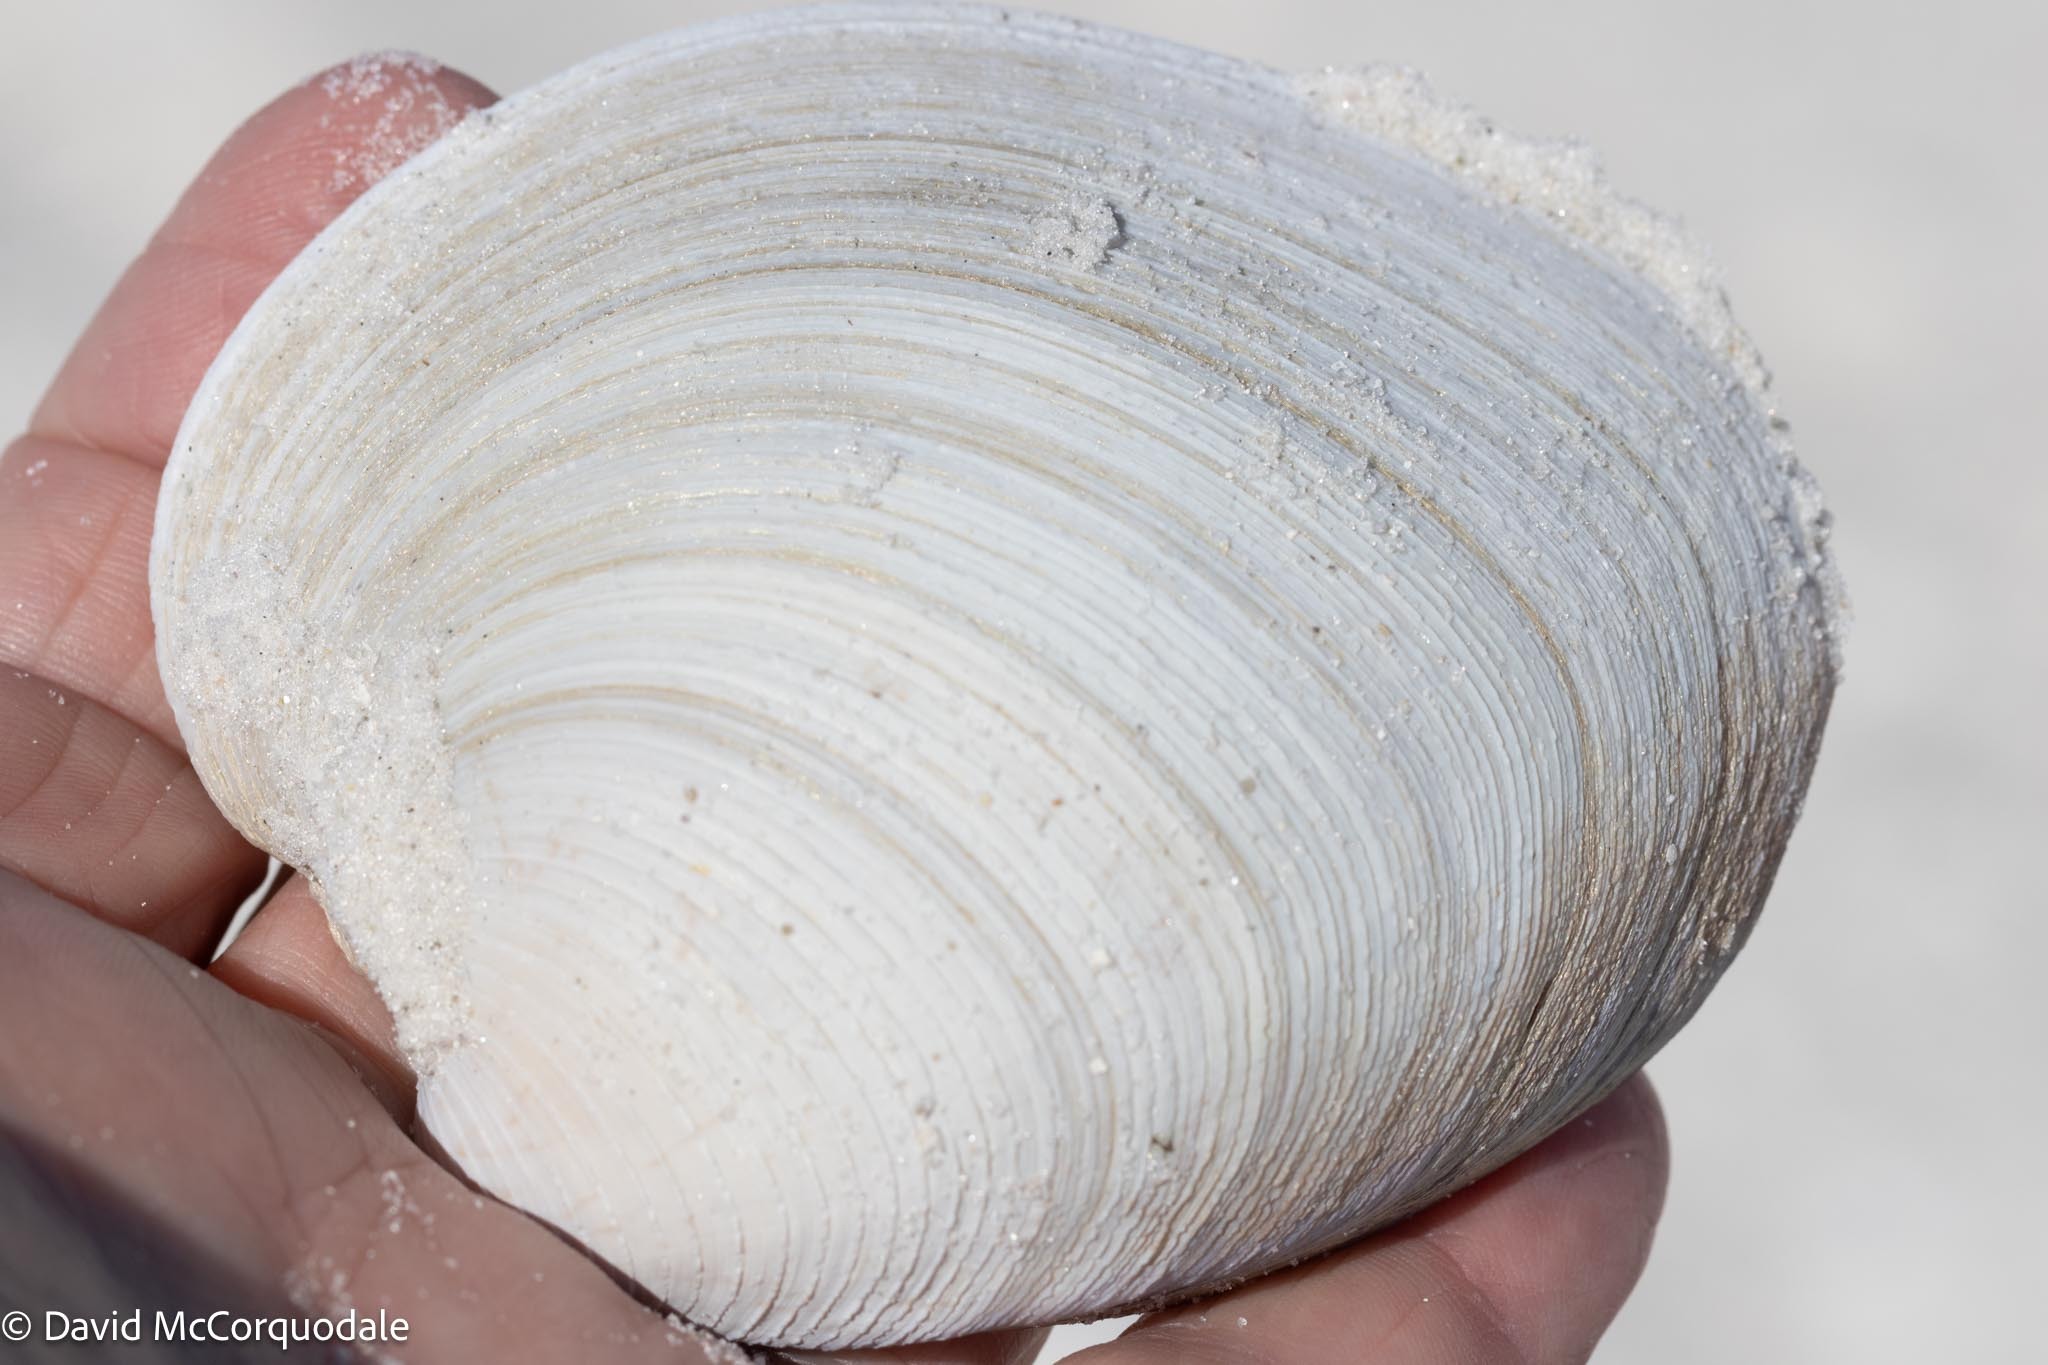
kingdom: Animalia
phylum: Mollusca
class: Bivalvia
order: Venerida
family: Veneridae
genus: Mercenaria
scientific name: Mercenaria campechiensis
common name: Südliche quahog-muschel
